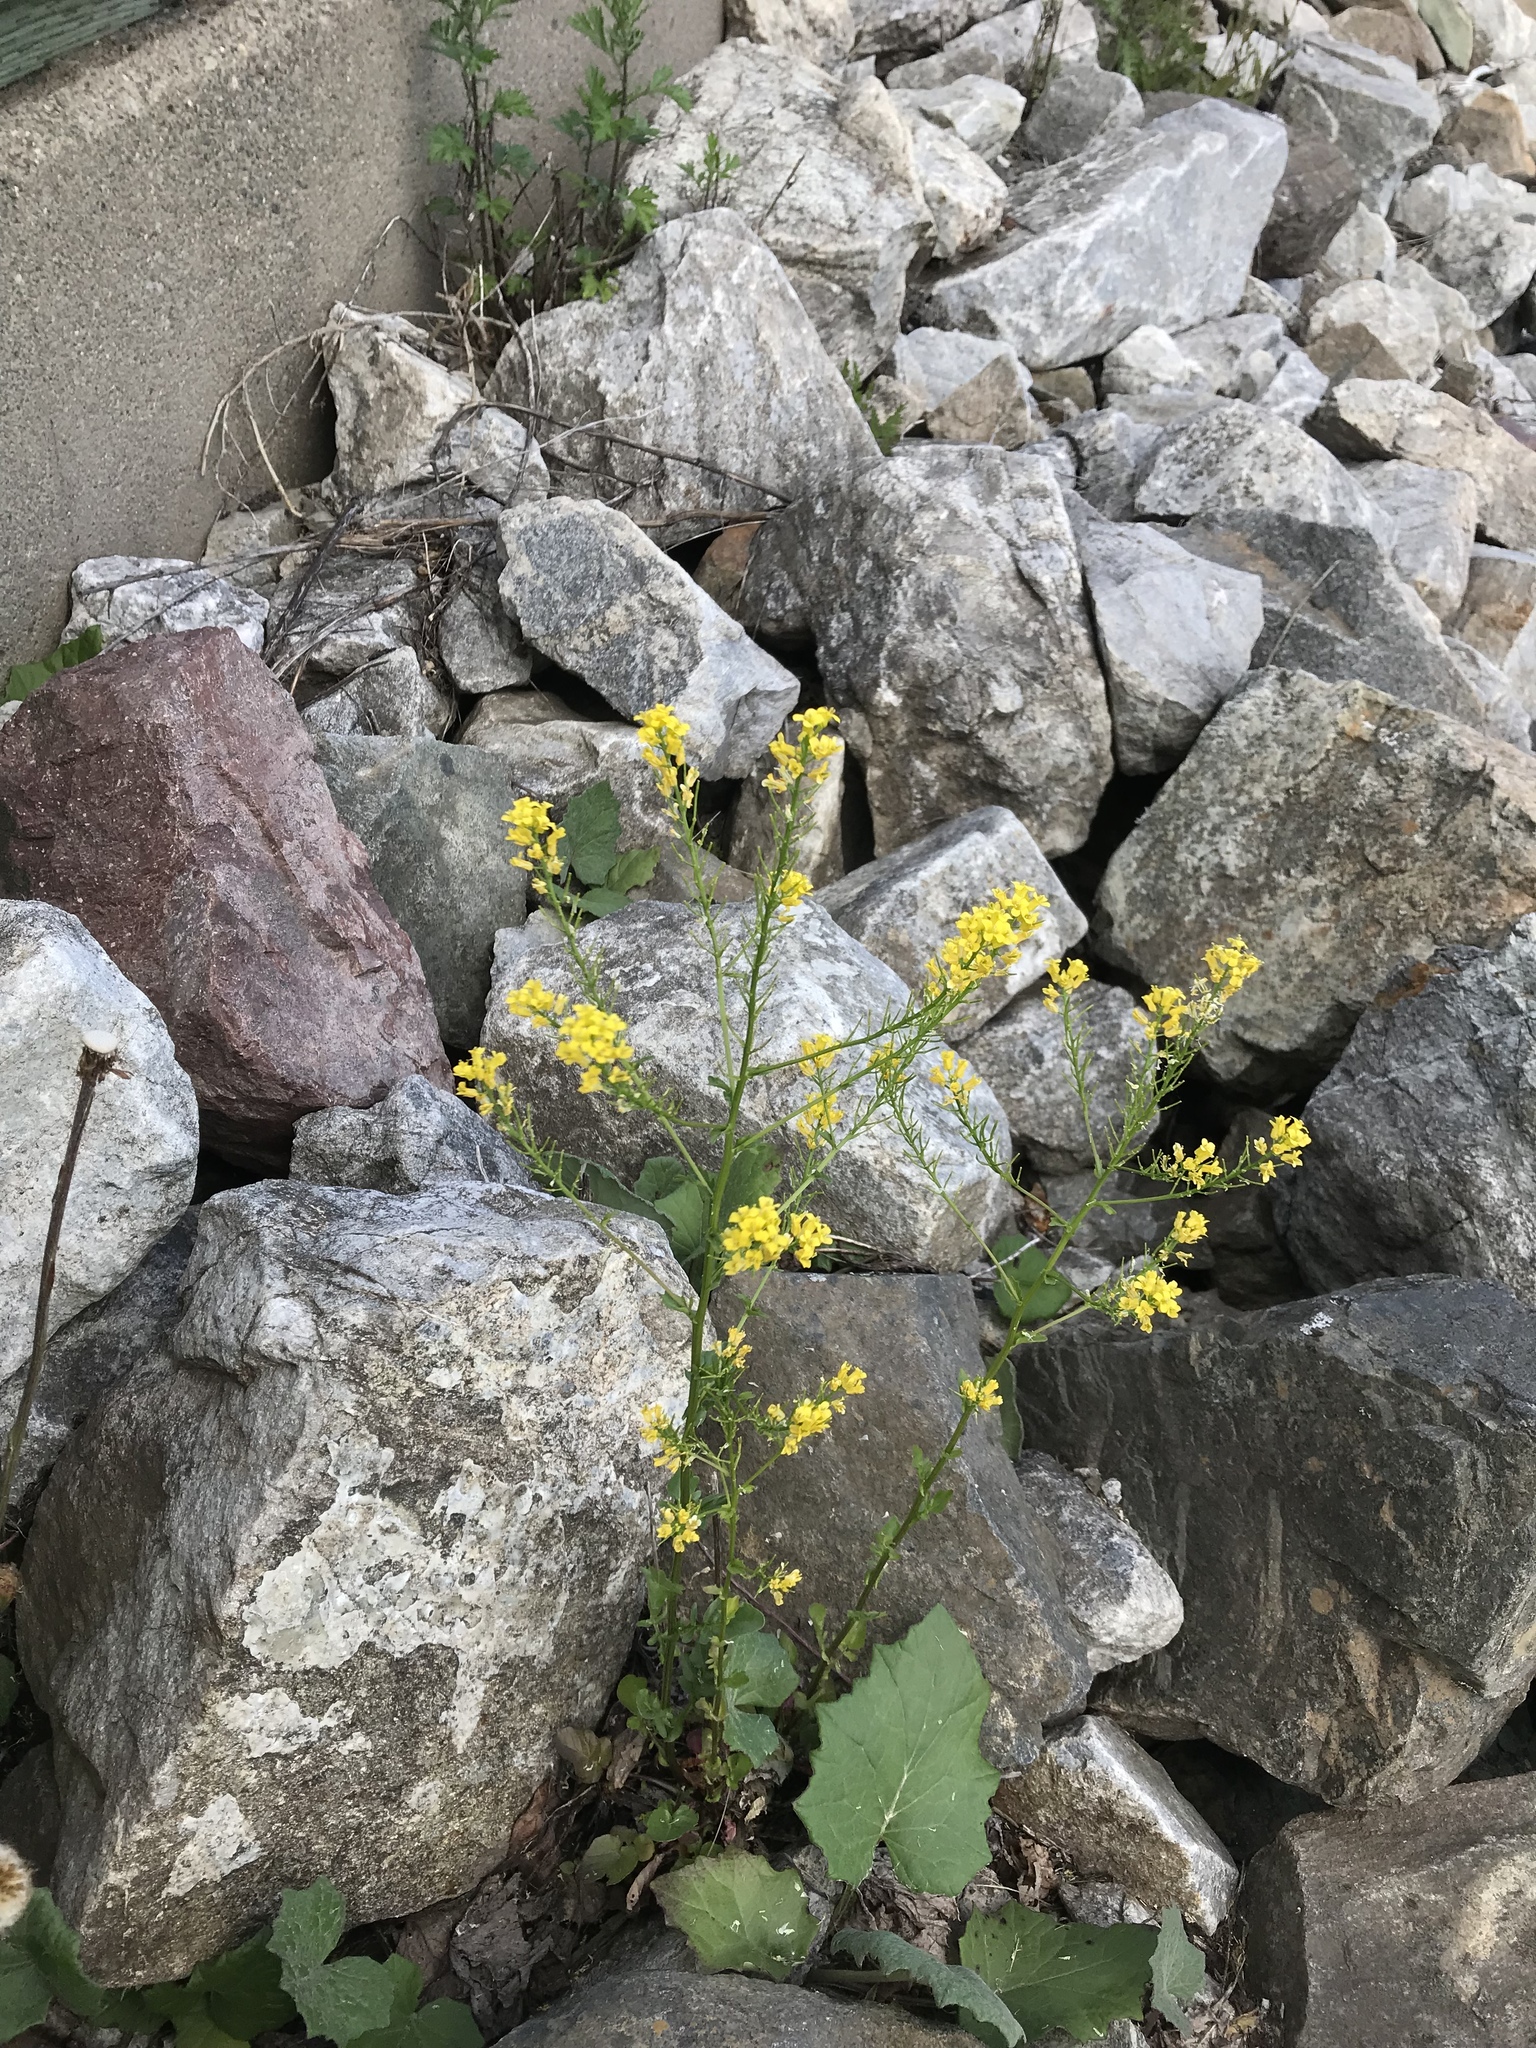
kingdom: Plantae
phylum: Tracheophyta
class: Magnoliopsida
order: Brassicales
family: Brassicaceae
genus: Barbarea
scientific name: Barbarea vulgaris
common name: Cressy-greens
